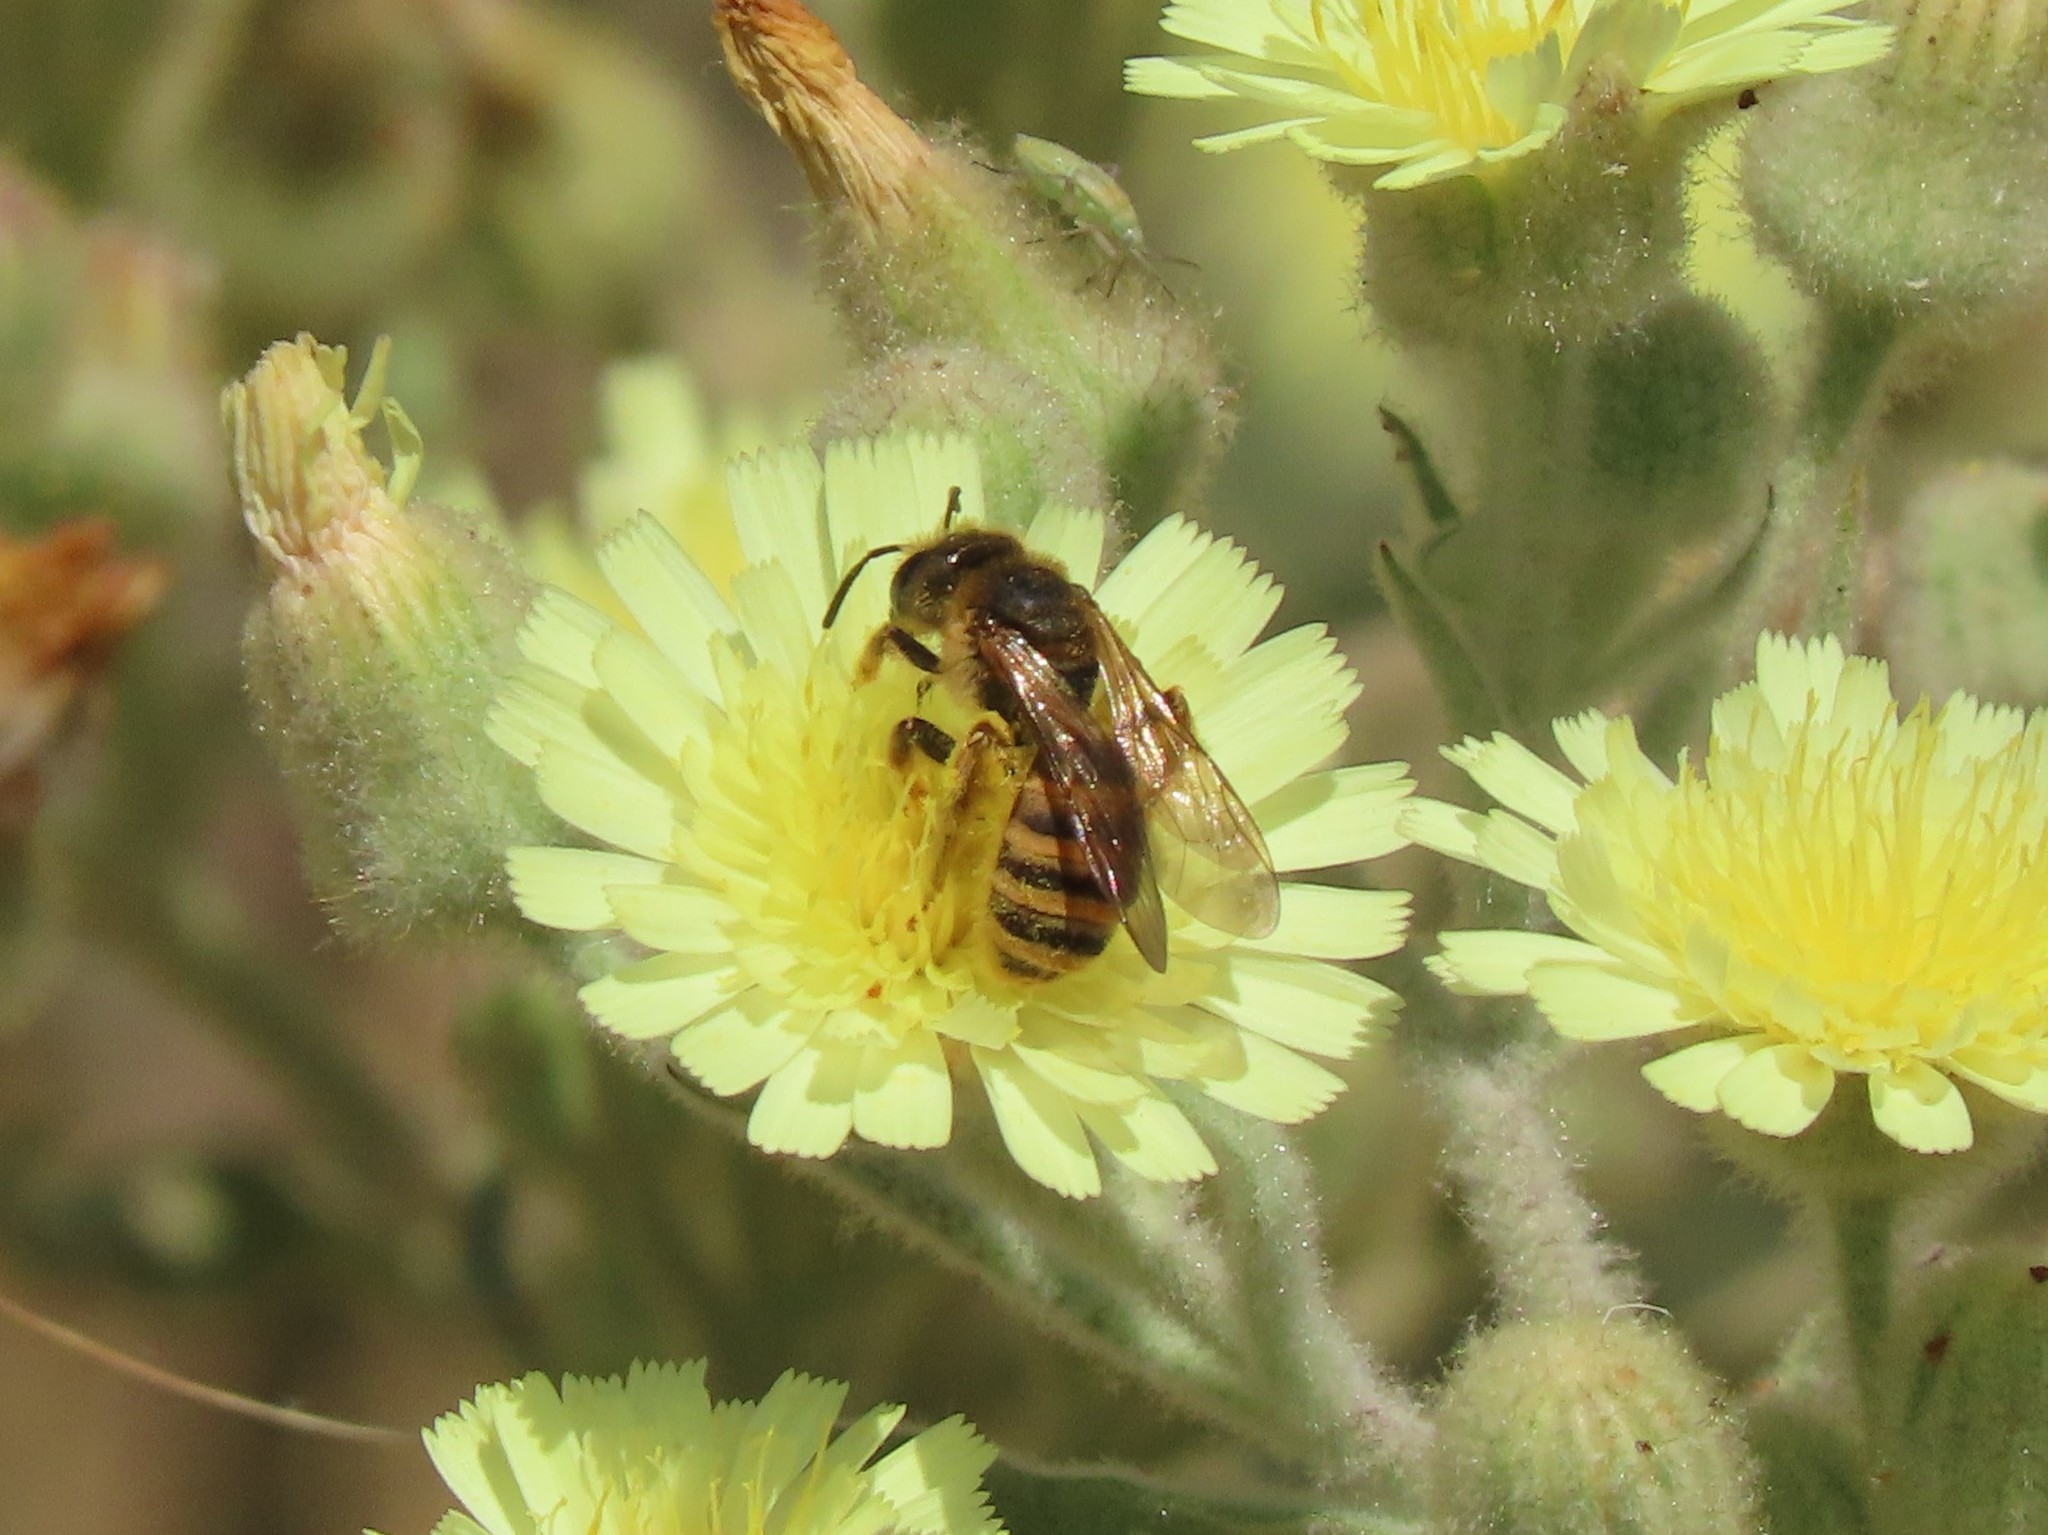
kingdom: Animalia
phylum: Arthropoda
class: Insecta
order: Hymenoptera
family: Halictidae
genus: Halictus
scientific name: Halictus scabiosae
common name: Great banded furrow bee
